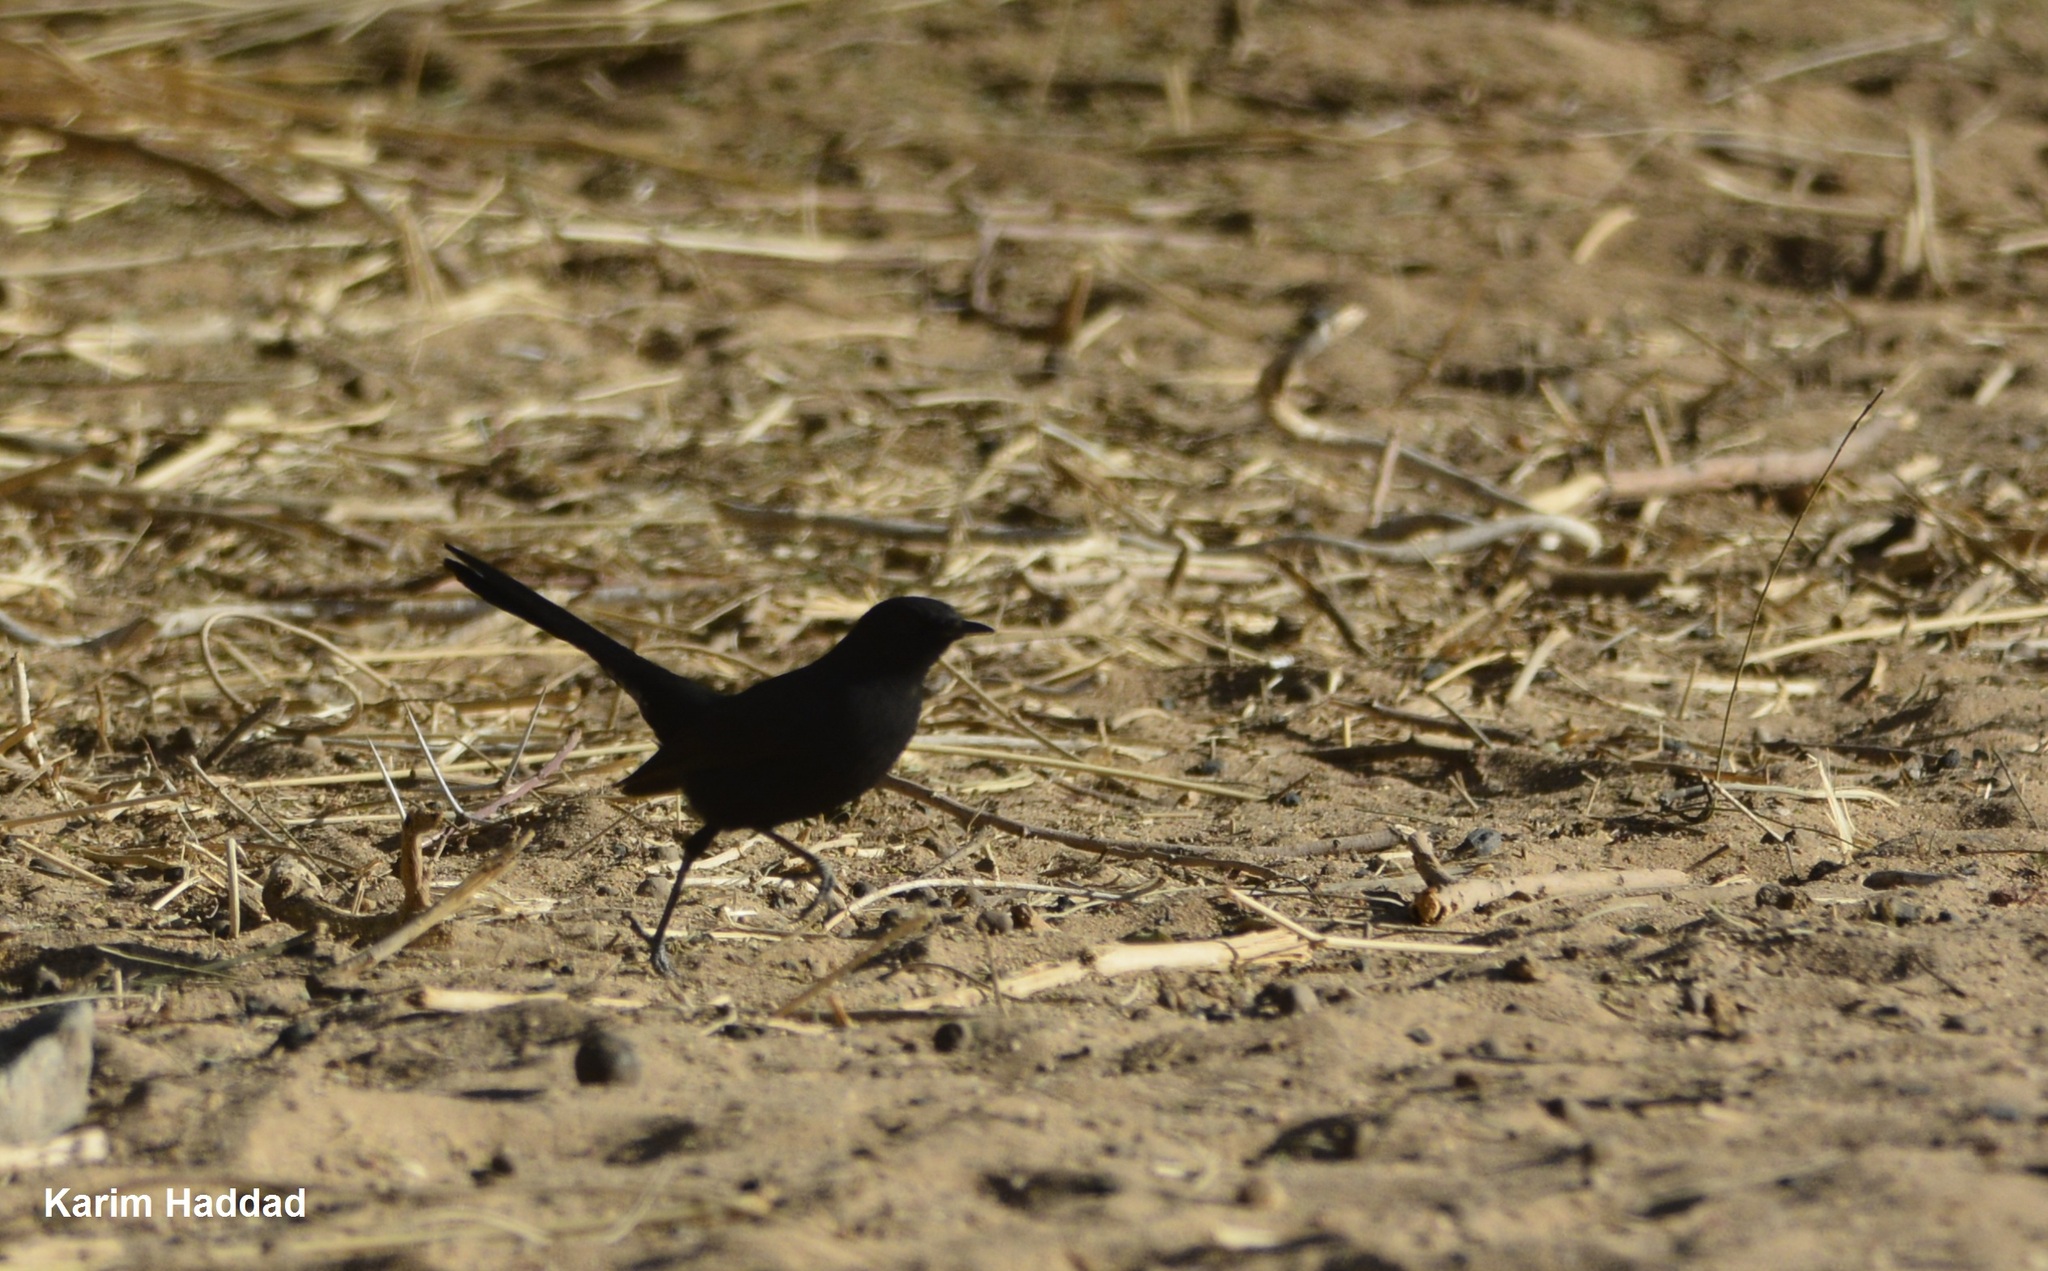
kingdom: Animalia
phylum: Chordata
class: Aves
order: Passeriformes
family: Muscicapidae
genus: Cercotrichas
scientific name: Cercotrichas podobe
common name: Black scrub robin
